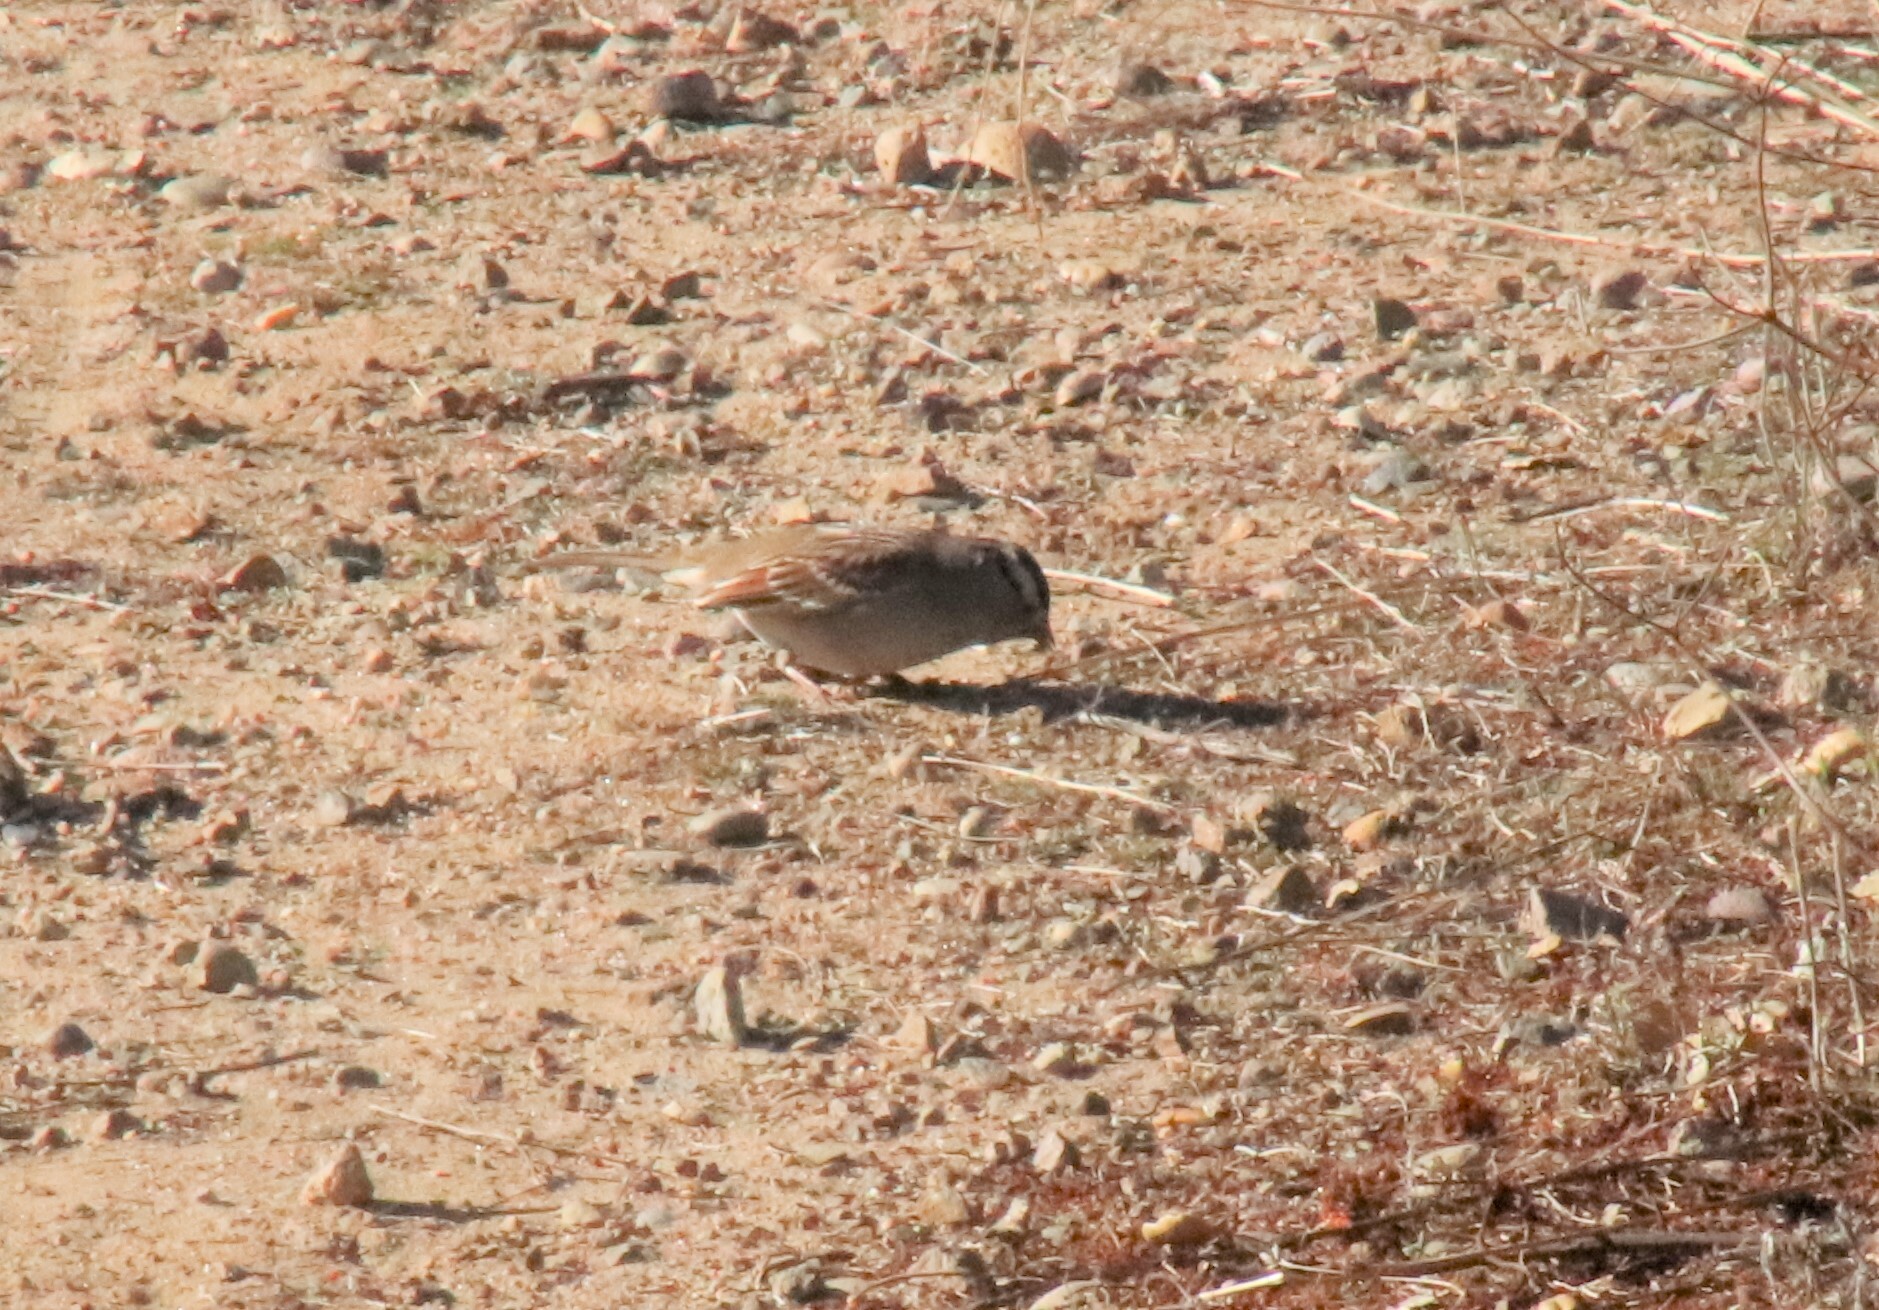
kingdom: Animalia
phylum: Chordata
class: Aves
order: Passeriformes
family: Passerellidae
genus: Zonotrichia
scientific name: Zonotrichia leucophrys
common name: White-crowned sparrow
